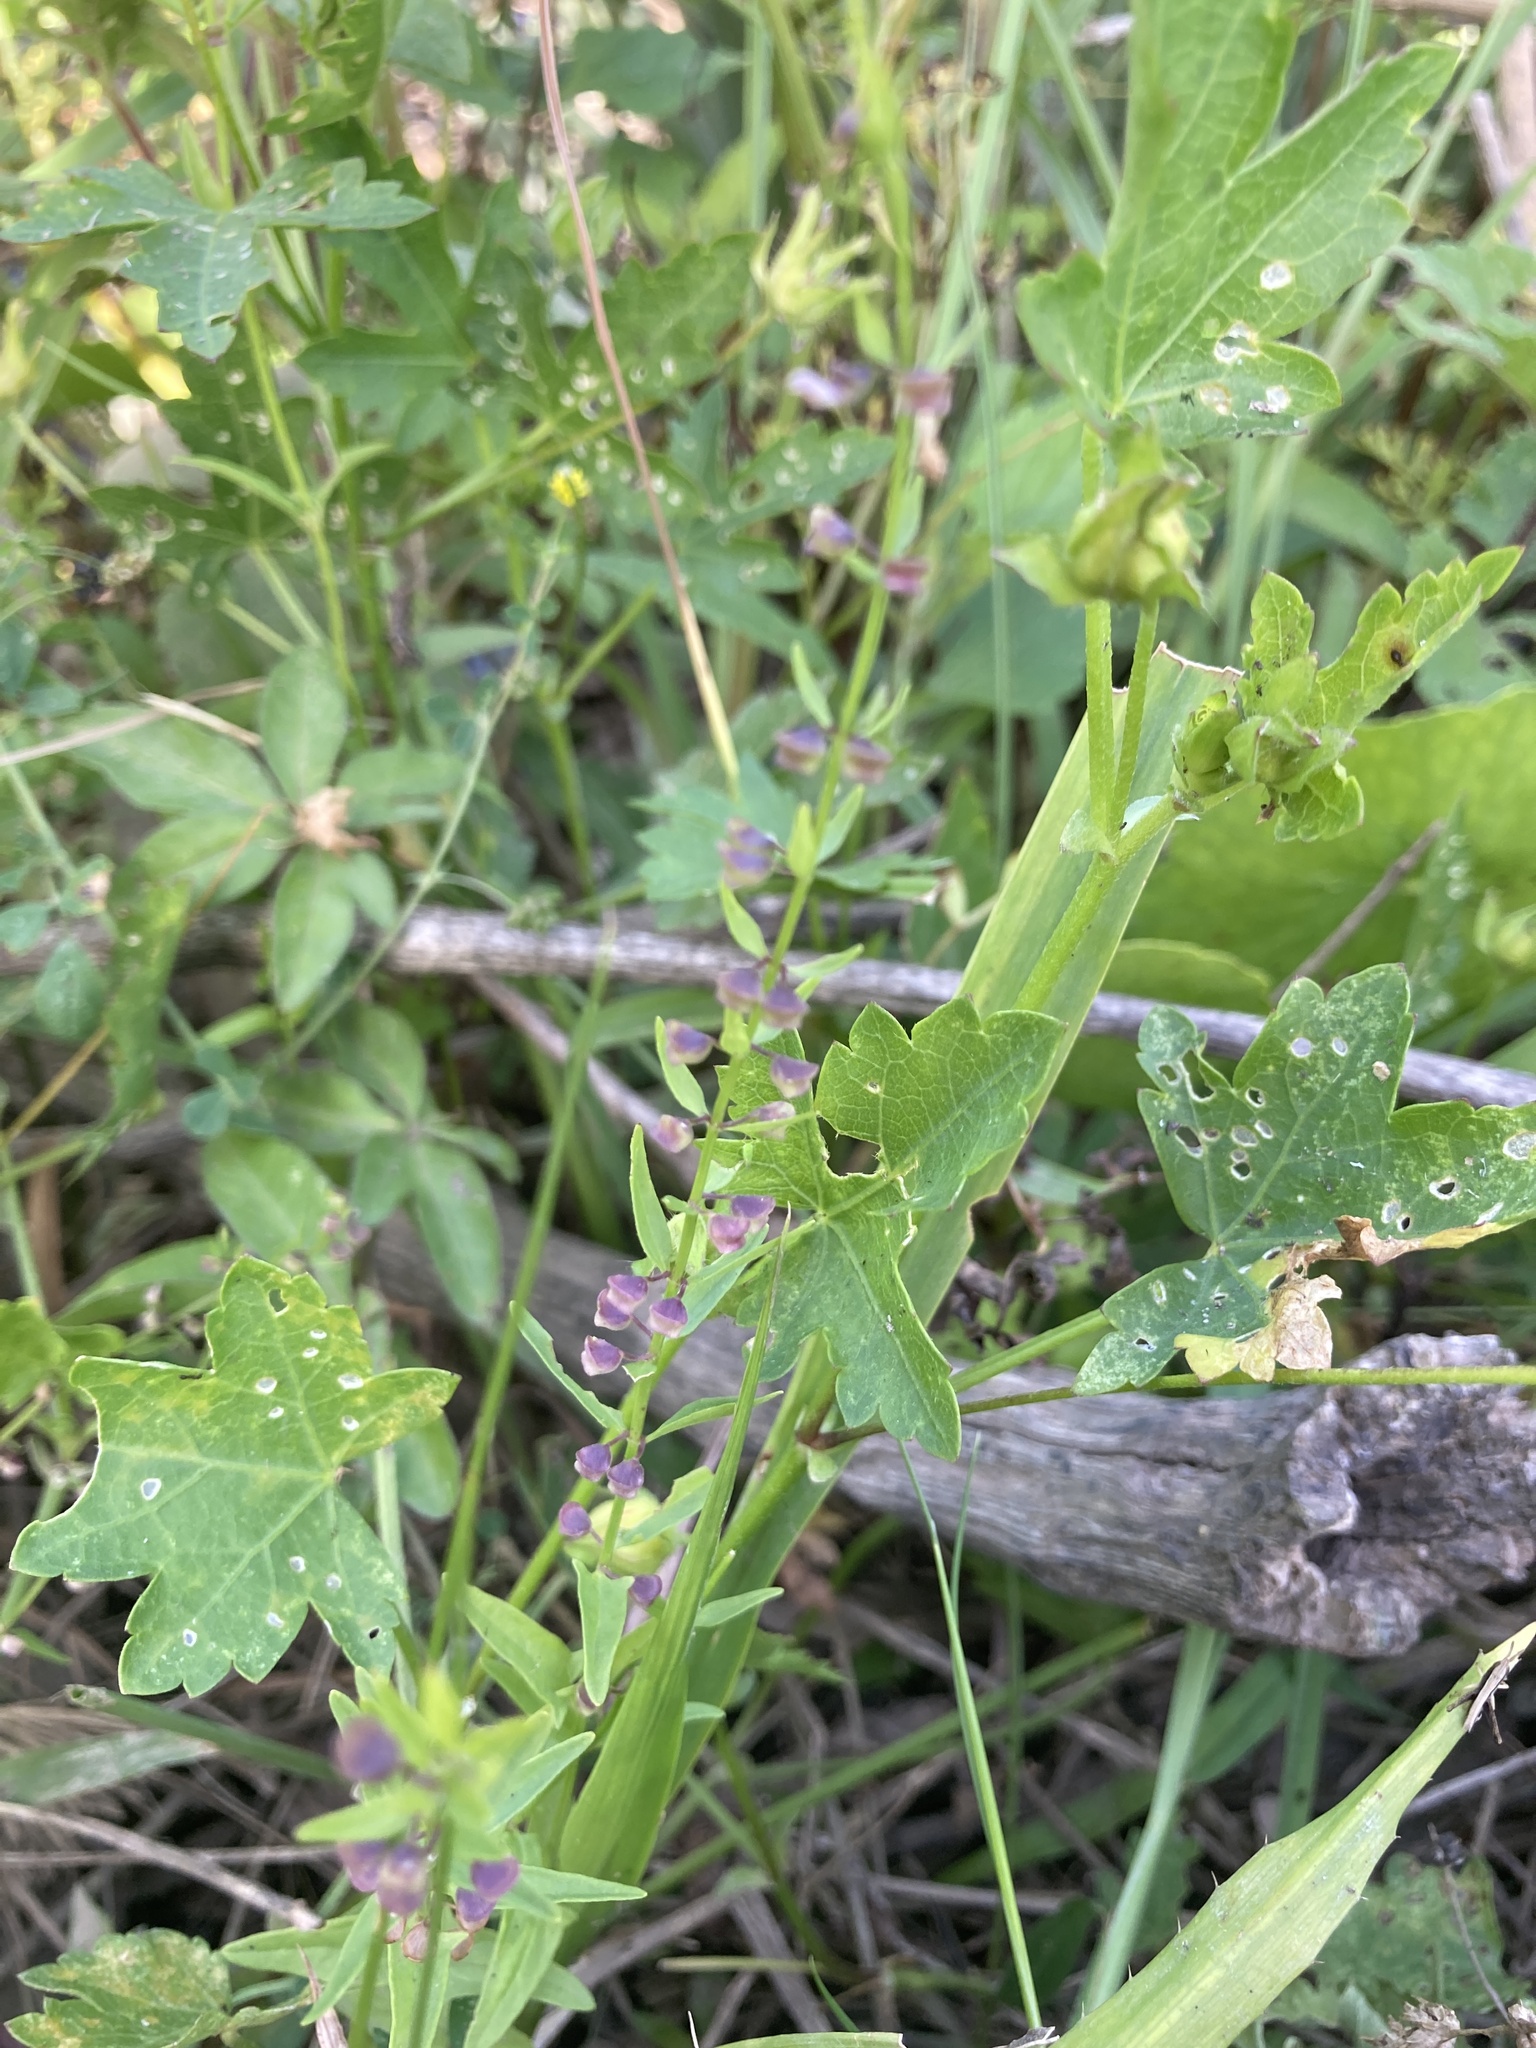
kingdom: Plantae
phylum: Tracheophyta
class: Magnoliopsida
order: Lamiales
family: Lamiaceae
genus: Scutellaria
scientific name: Scutellaria racemosa
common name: South american skullcap
